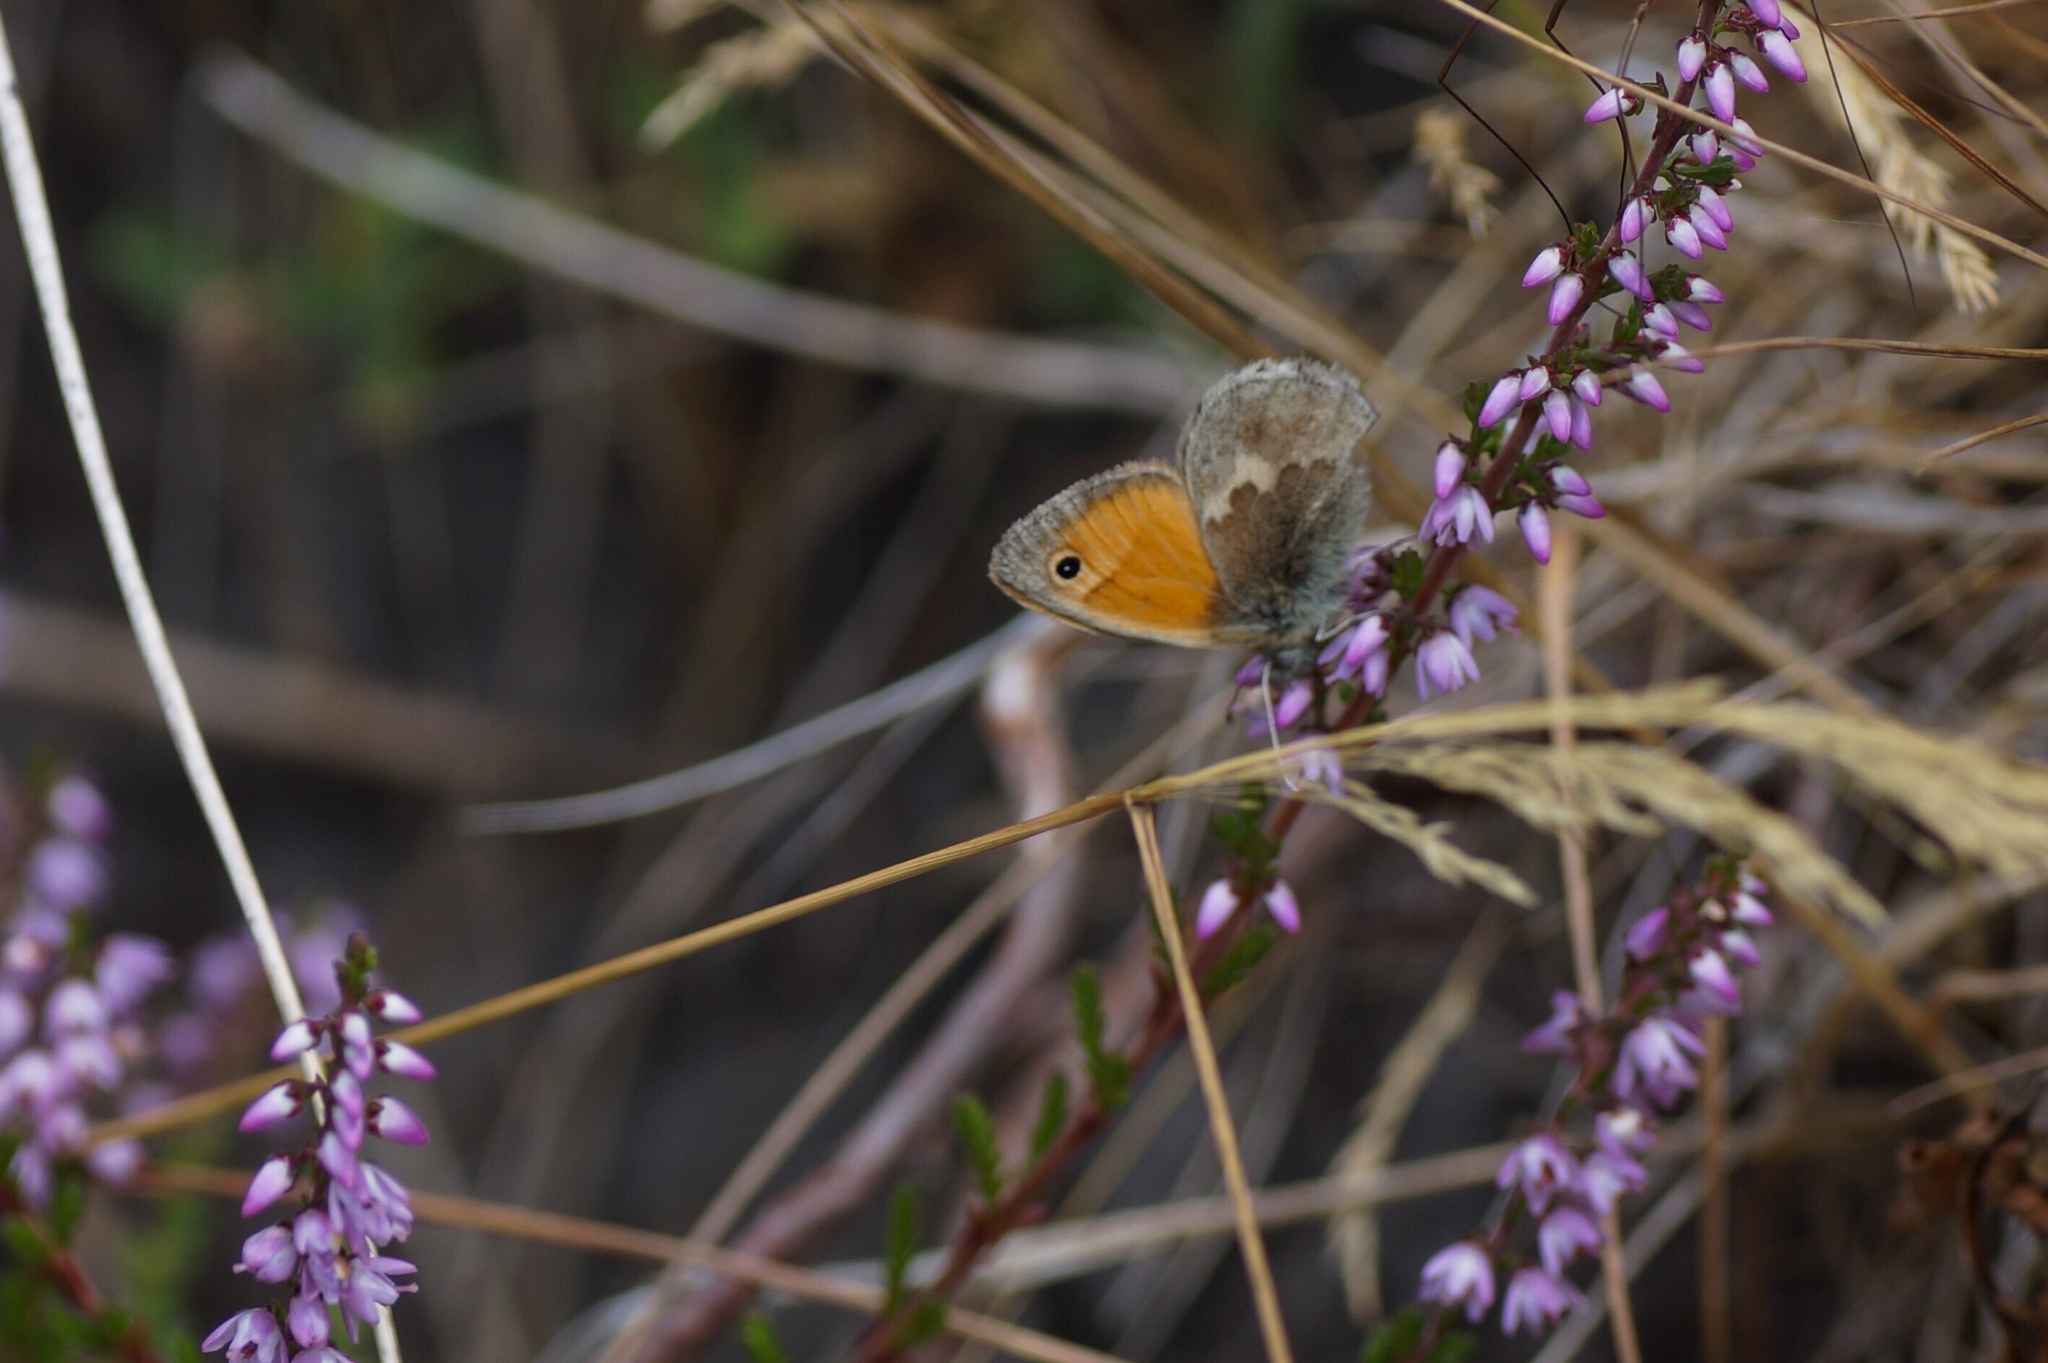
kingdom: Animalia
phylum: Arthropoda
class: Insecta
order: Lepidoptera
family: Nymphalidae
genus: Coenonympha
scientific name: Coenonympha pamphilus
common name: Small heath
